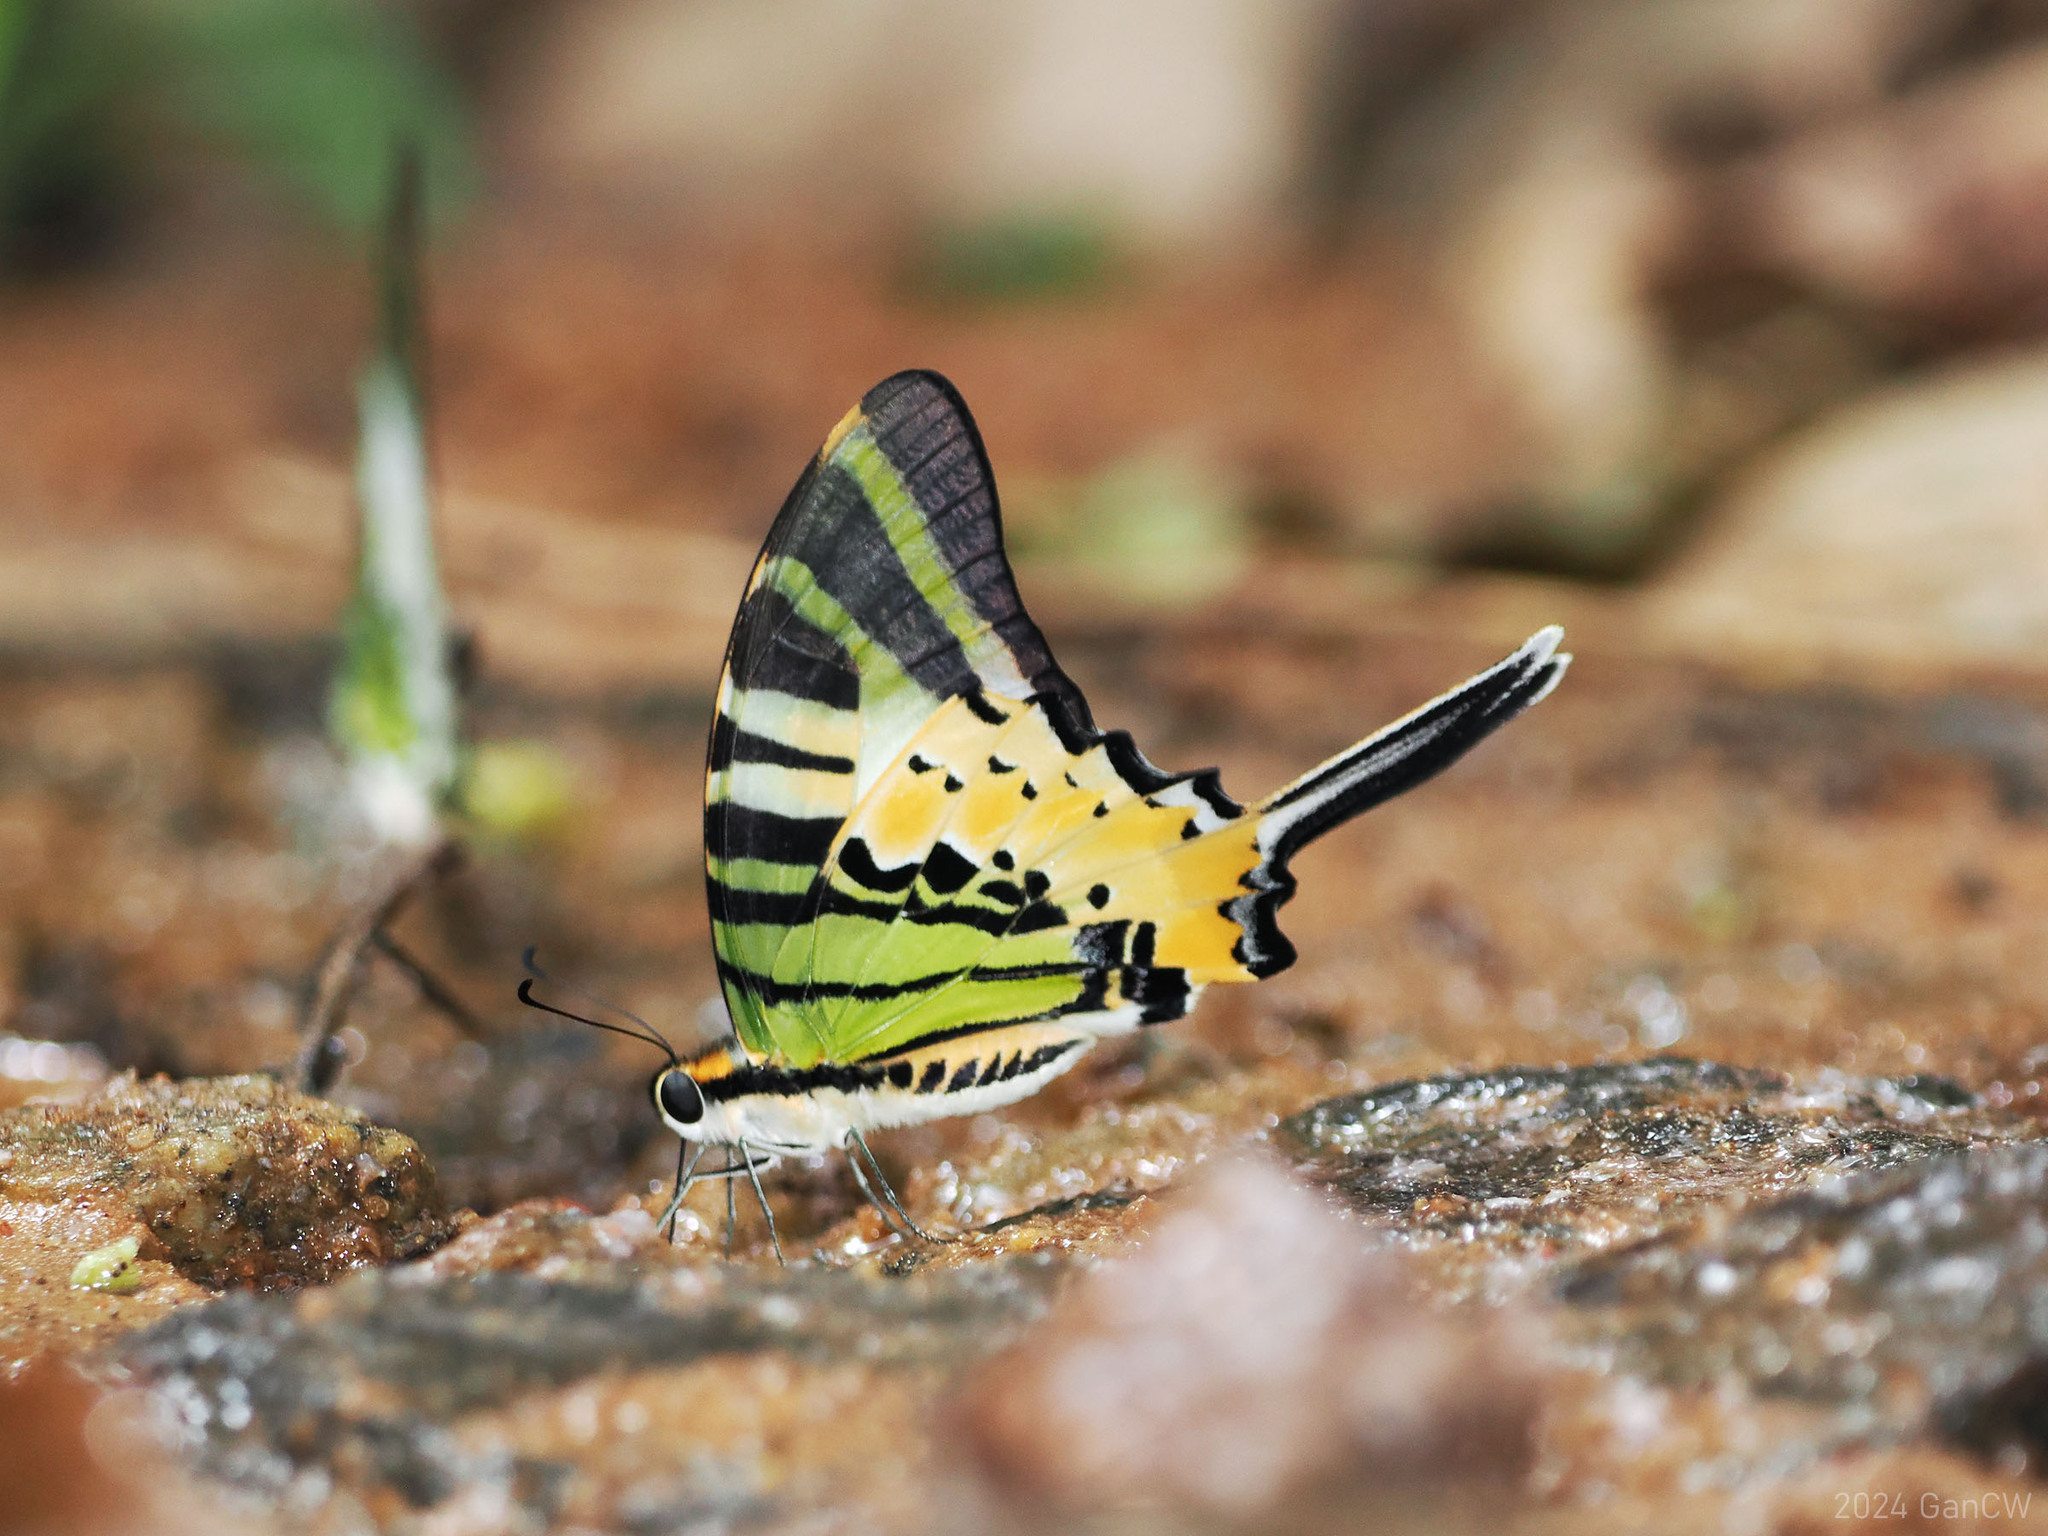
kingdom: Animalia
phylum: Arthropoda
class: Insecta
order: Lepidoptera
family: Papilionidae
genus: Graphium
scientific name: Graphium antiphates
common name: Fivebar swordtail
